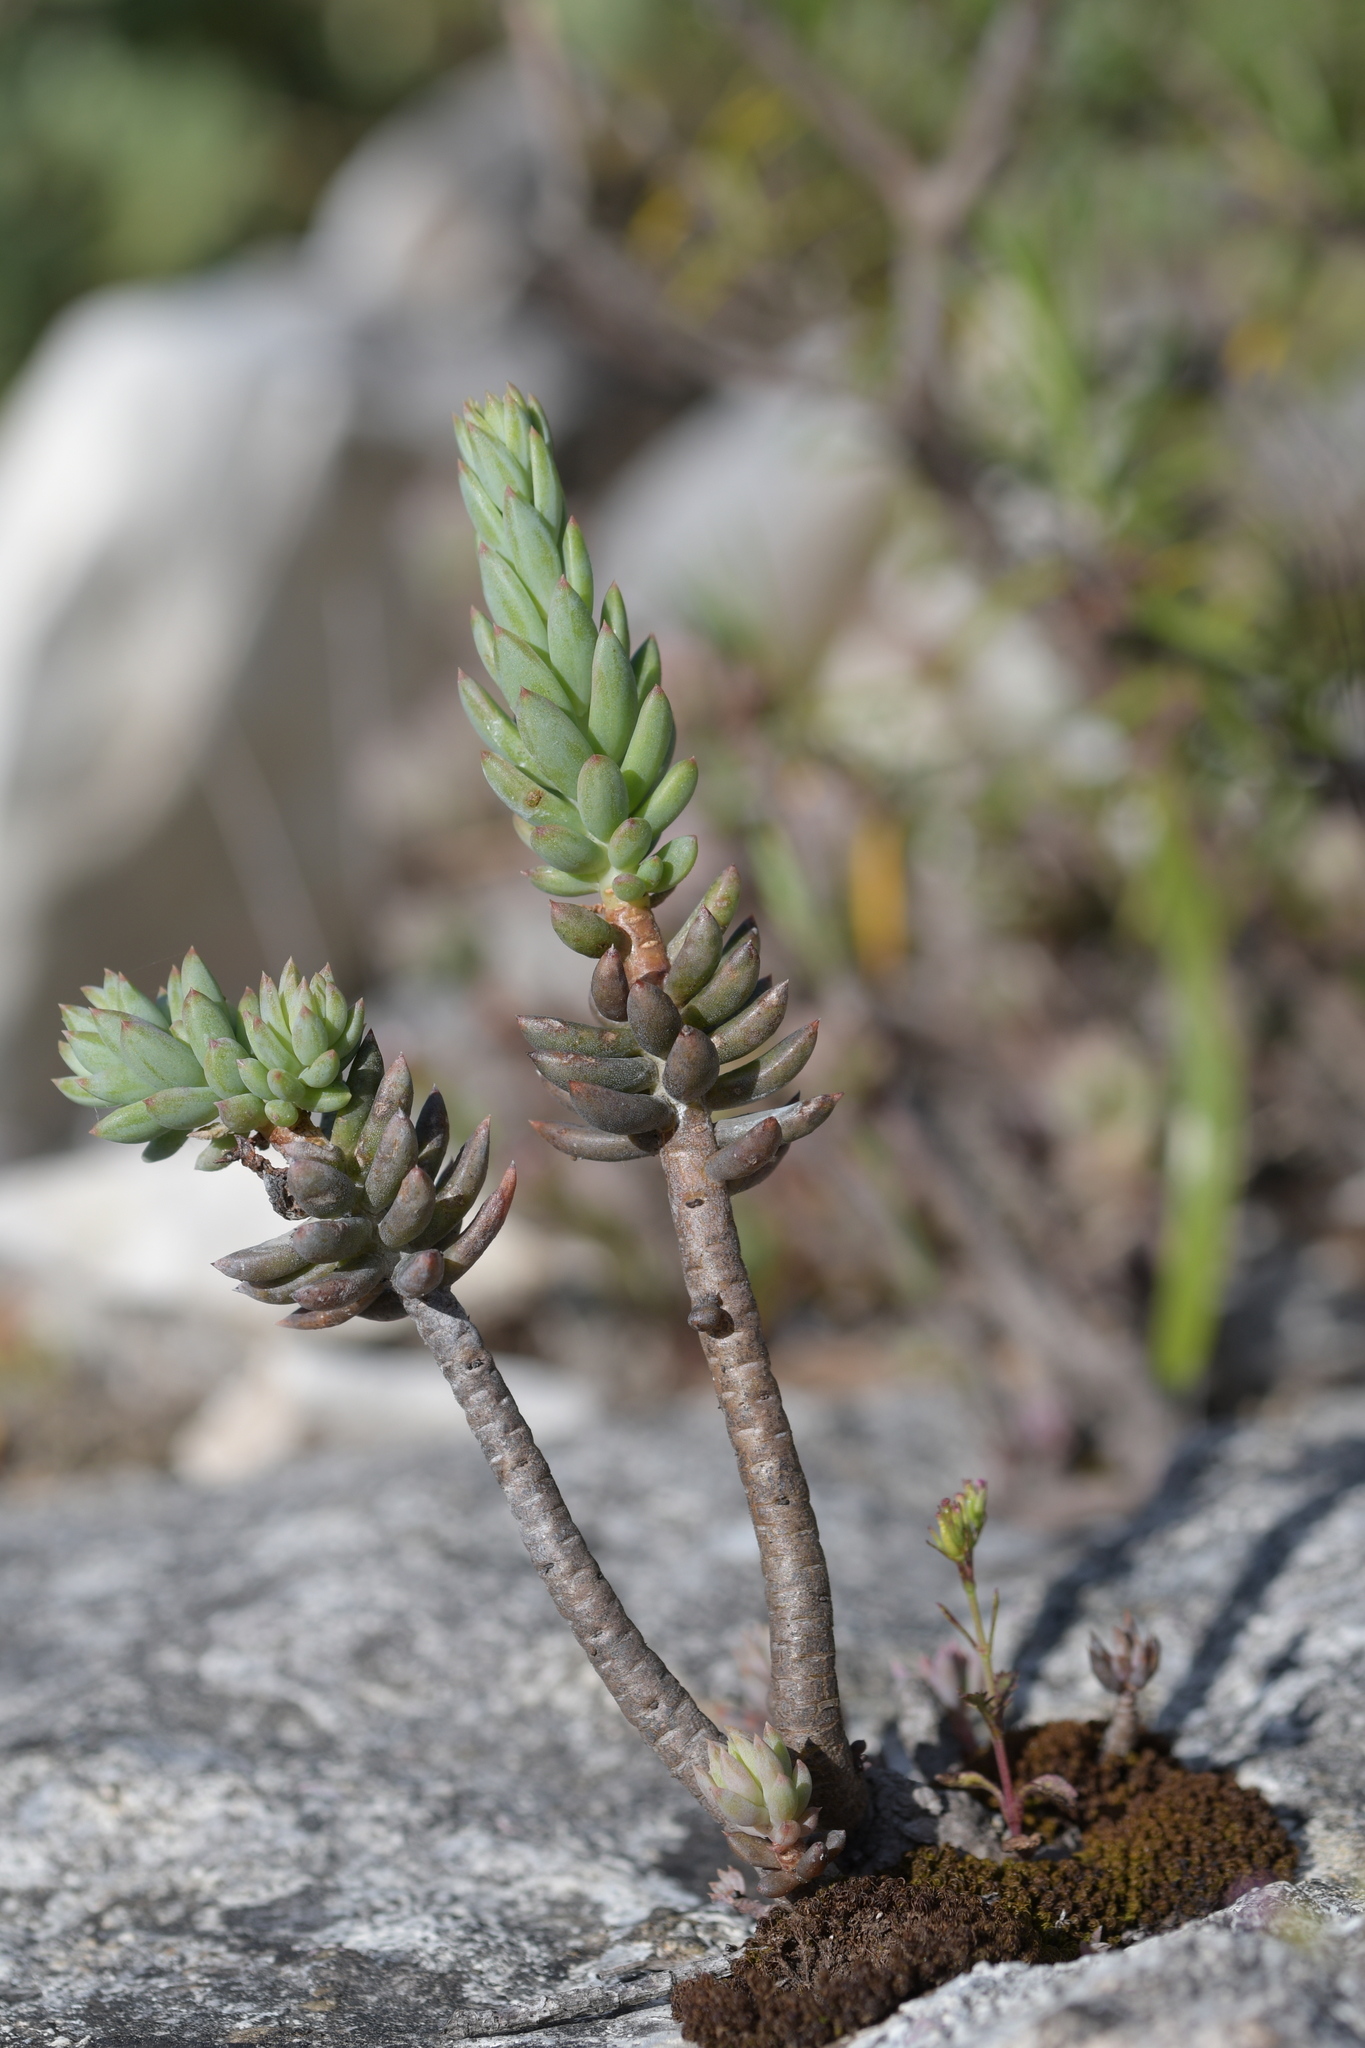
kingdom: Plantae
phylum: Tracheophyta
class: Magnoliopsida
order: Saxifragales
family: Crassulaceae
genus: Petrosedum
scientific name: Petrosedum sediforme
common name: Pale stonecrop
